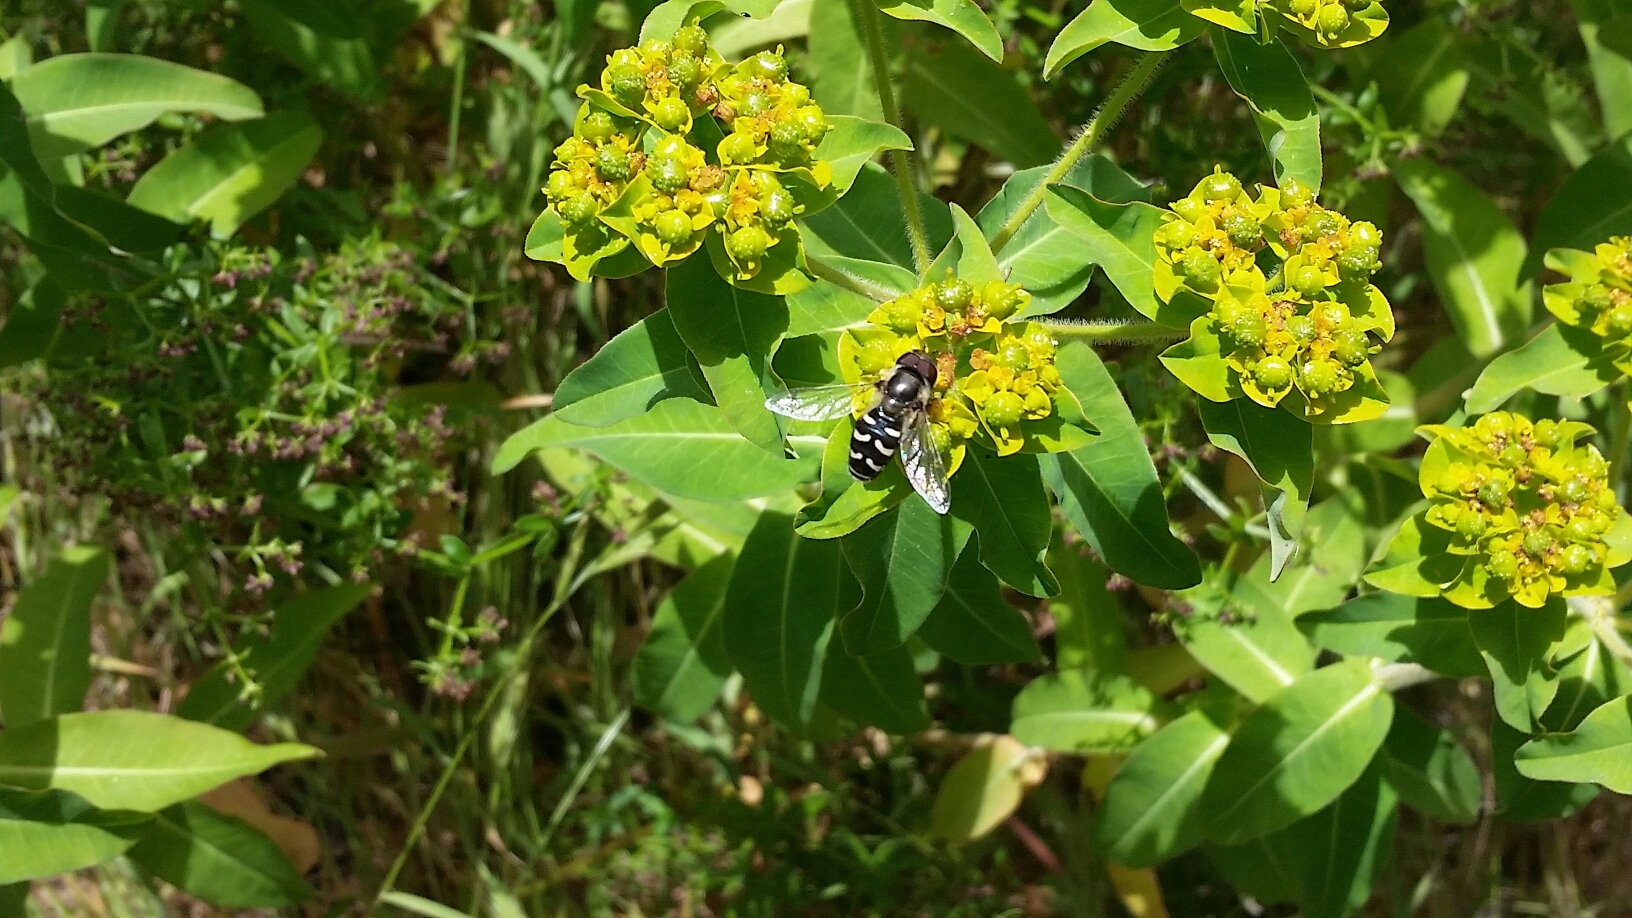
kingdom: Animalia
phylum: Arthropoda
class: Insecta
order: Diptera
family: Syrphidae
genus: Scaeva
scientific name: Scaeva affinis
